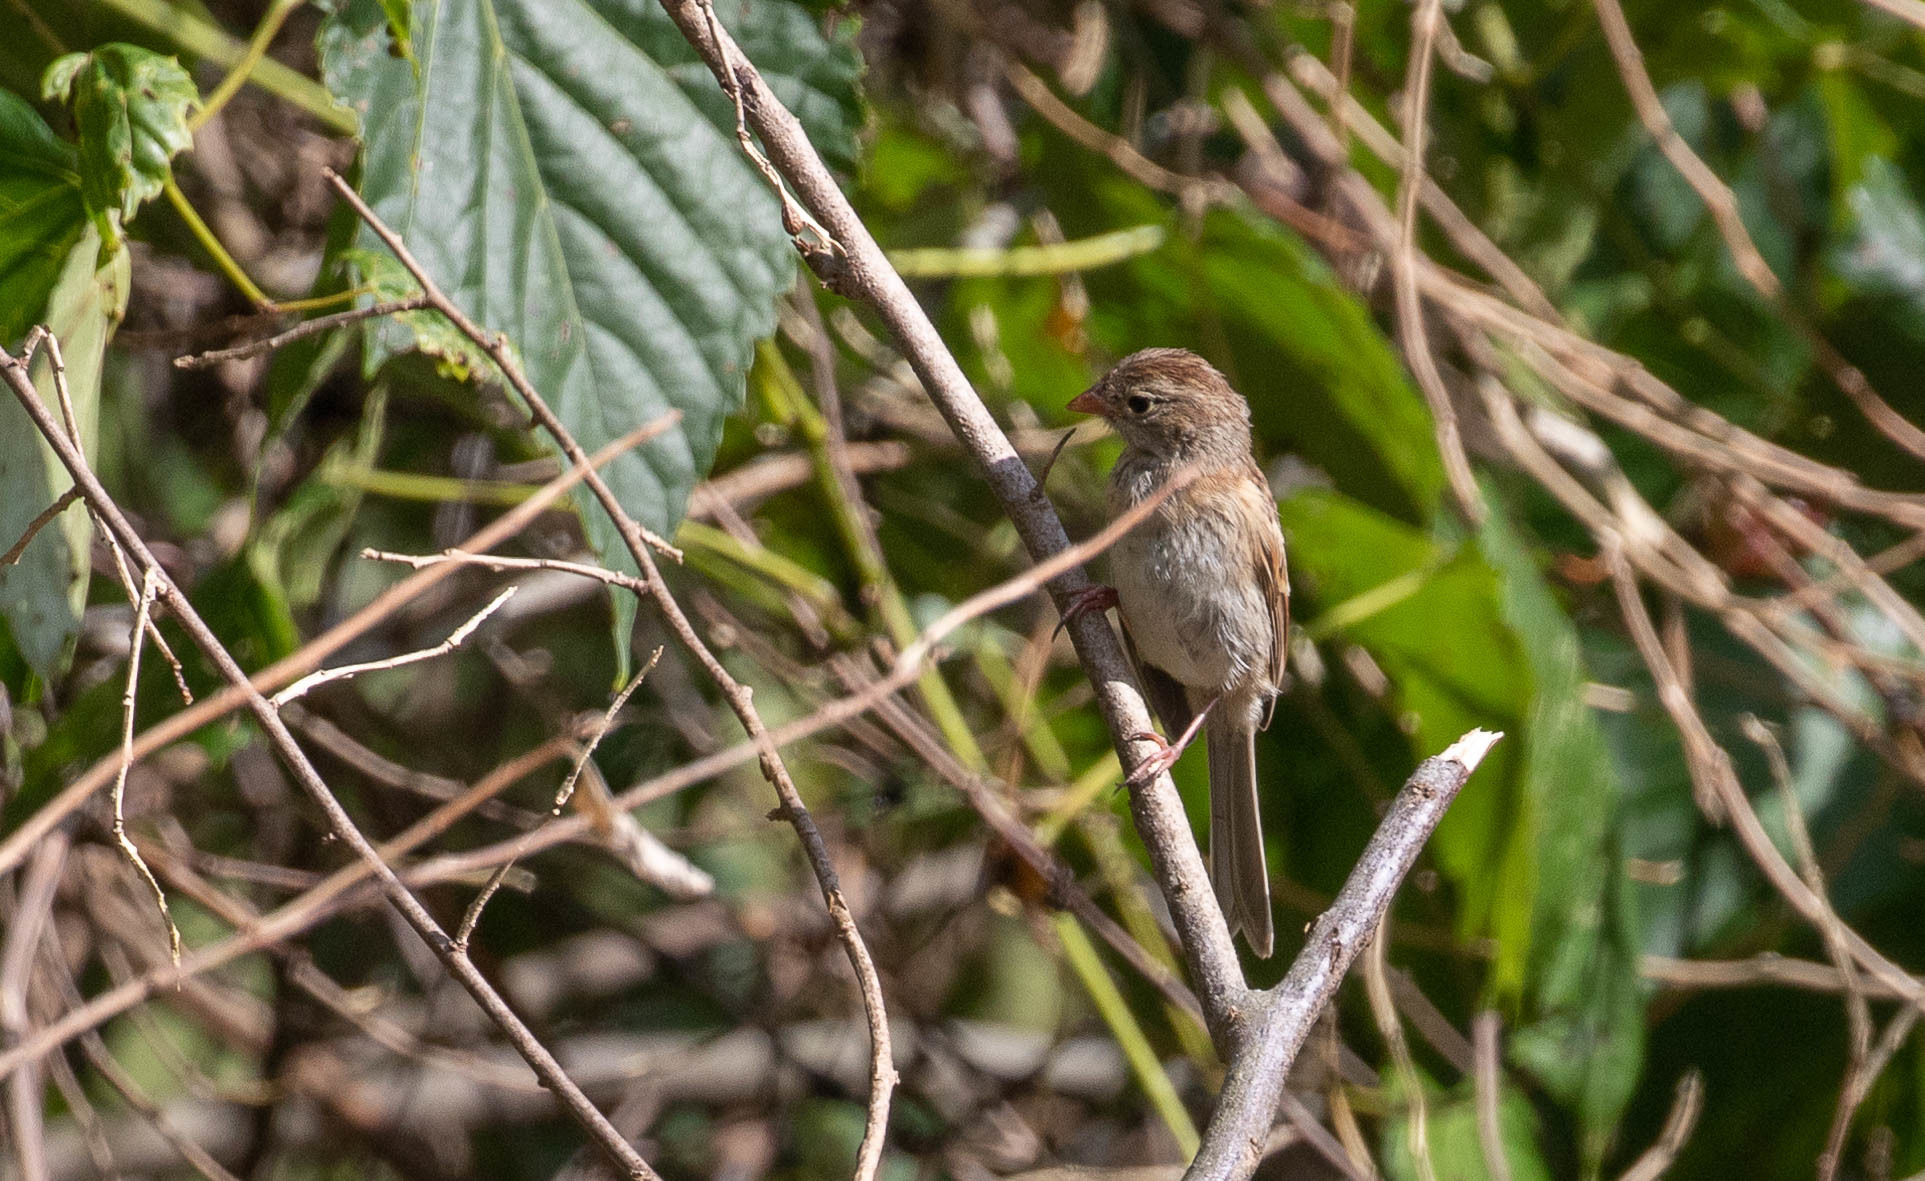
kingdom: Animalia
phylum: Chordata
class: Aves
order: Passeriformes
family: Passerellidae
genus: Spizella
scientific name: Spizella pusilla
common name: Field sparrow
